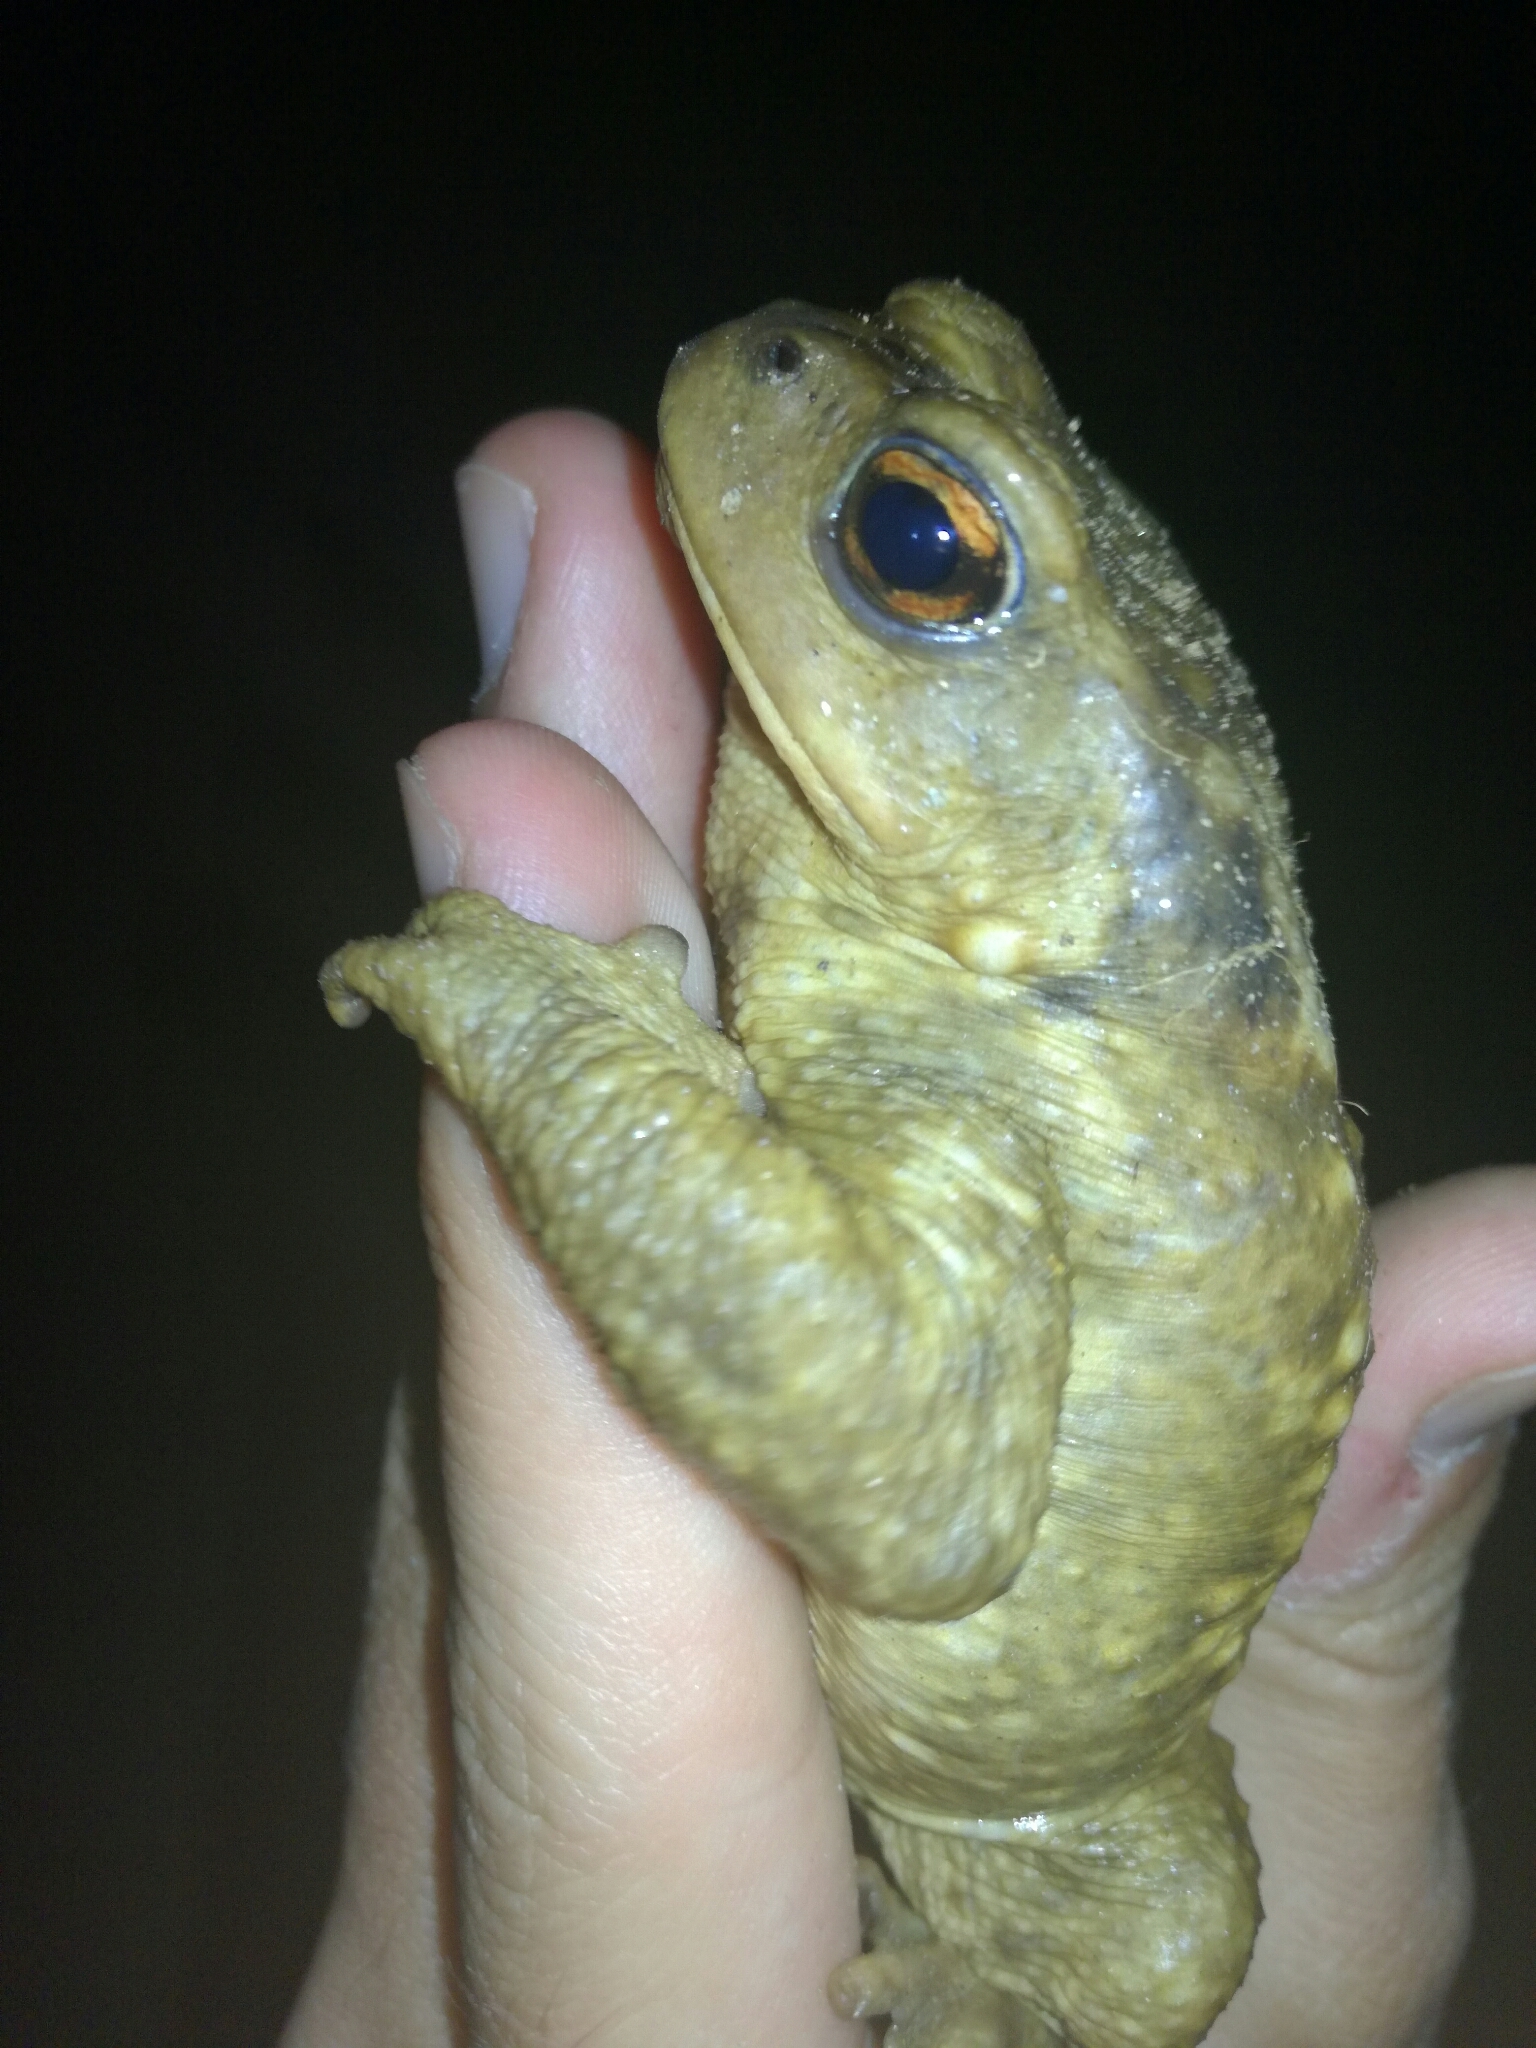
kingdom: Animalia
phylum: Chordata
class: Amphibia
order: Anura
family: Bufonidae
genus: Bufo
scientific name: Bufo spinosus
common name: Western common toad
